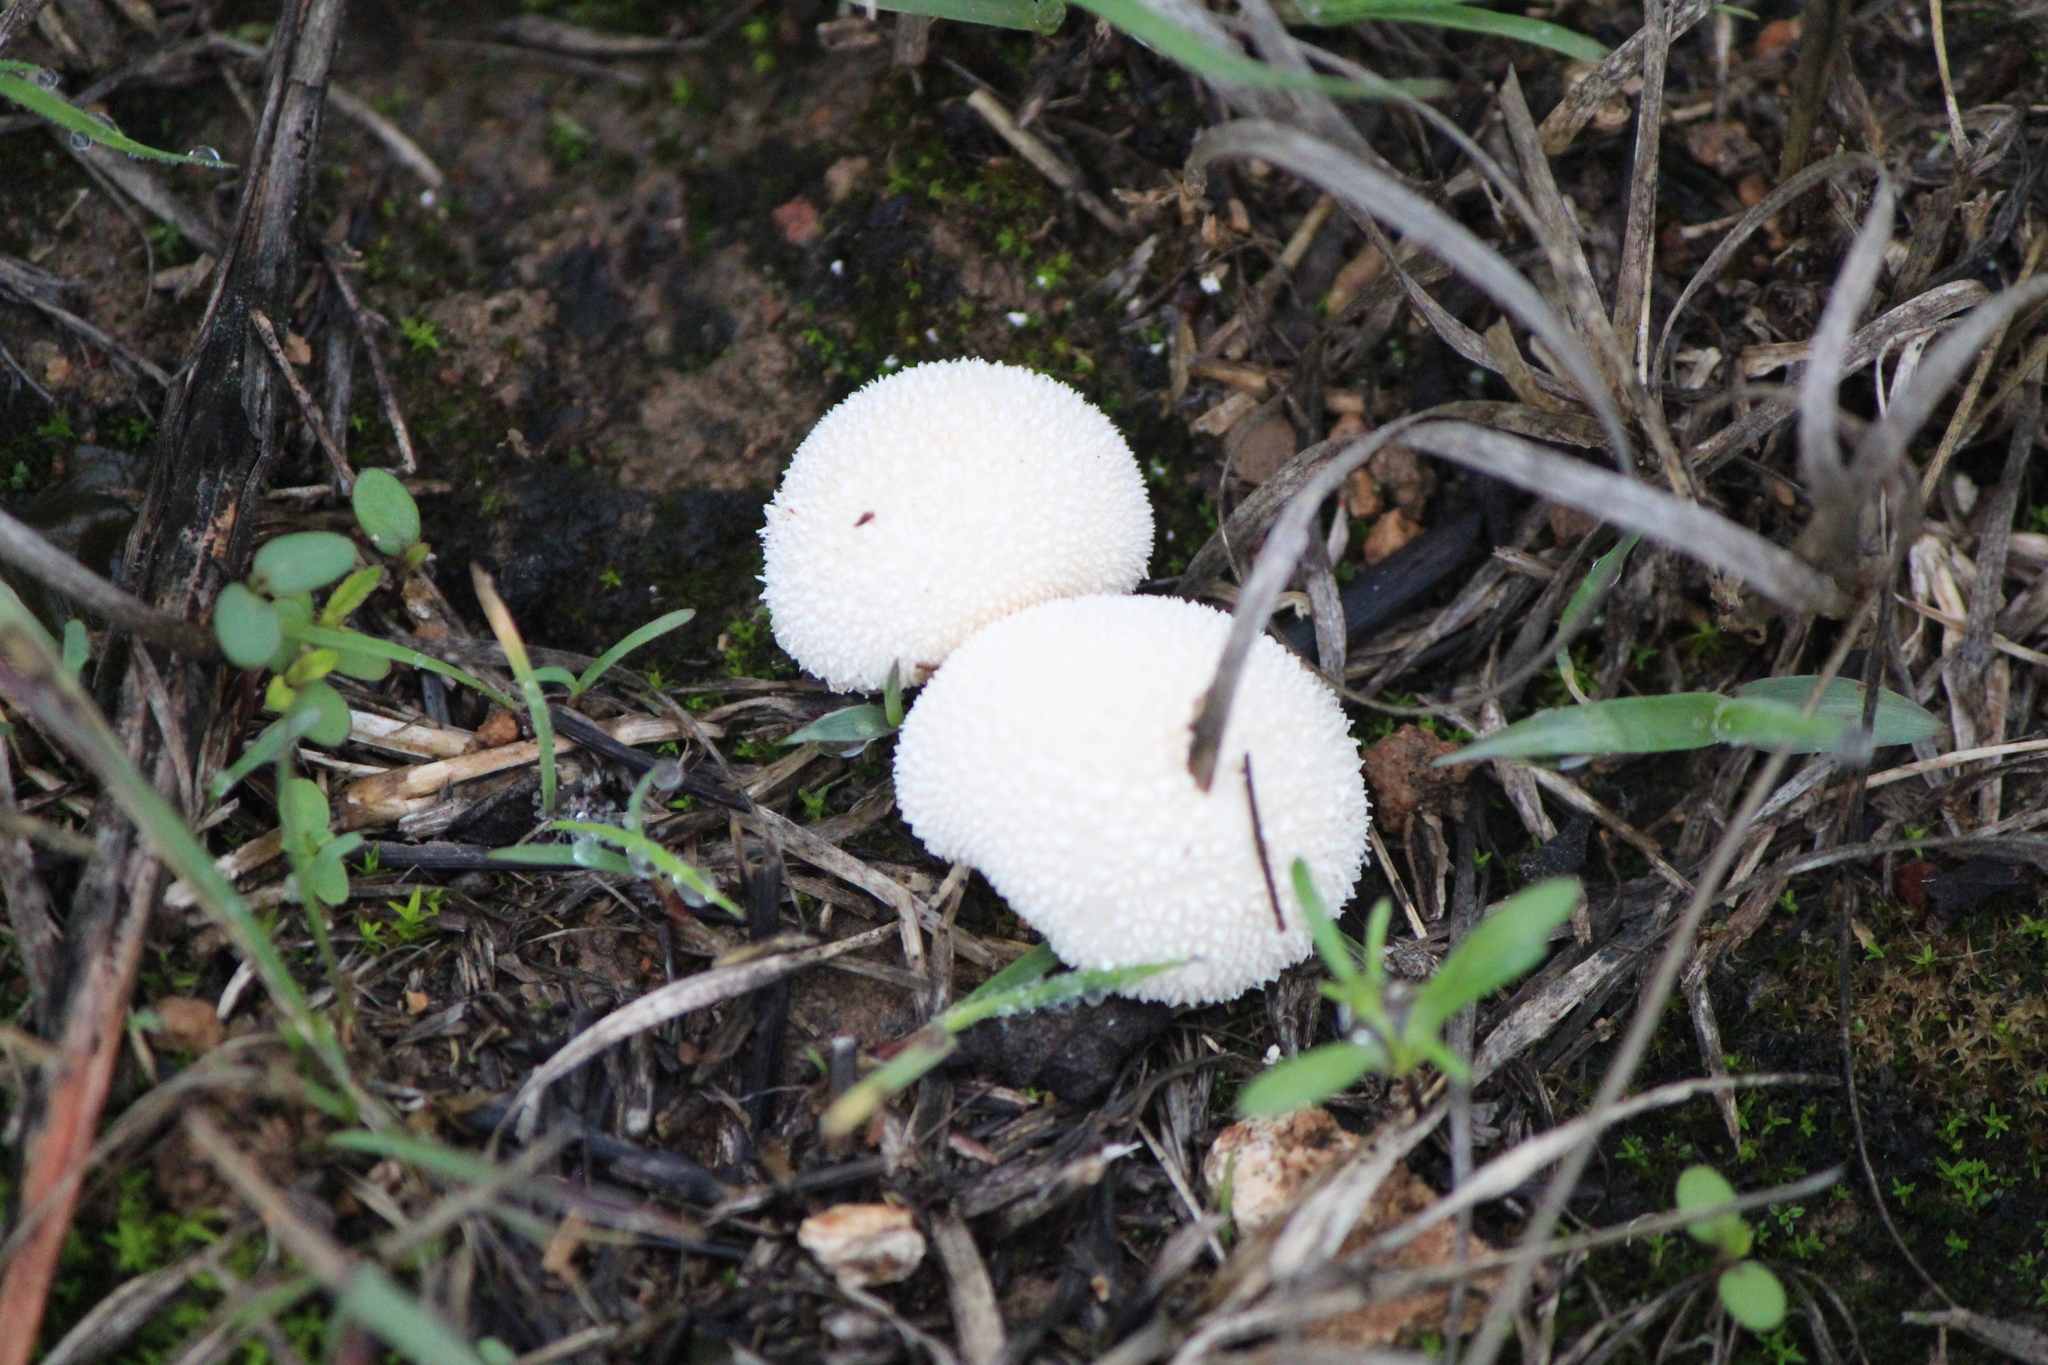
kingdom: Fungi
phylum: Basidiomycota
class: Agaricomycetes
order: Agaricales
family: Lycoperdaceae
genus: Lycoperdon
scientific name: Lycoperdon perlatum
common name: Common puffball
